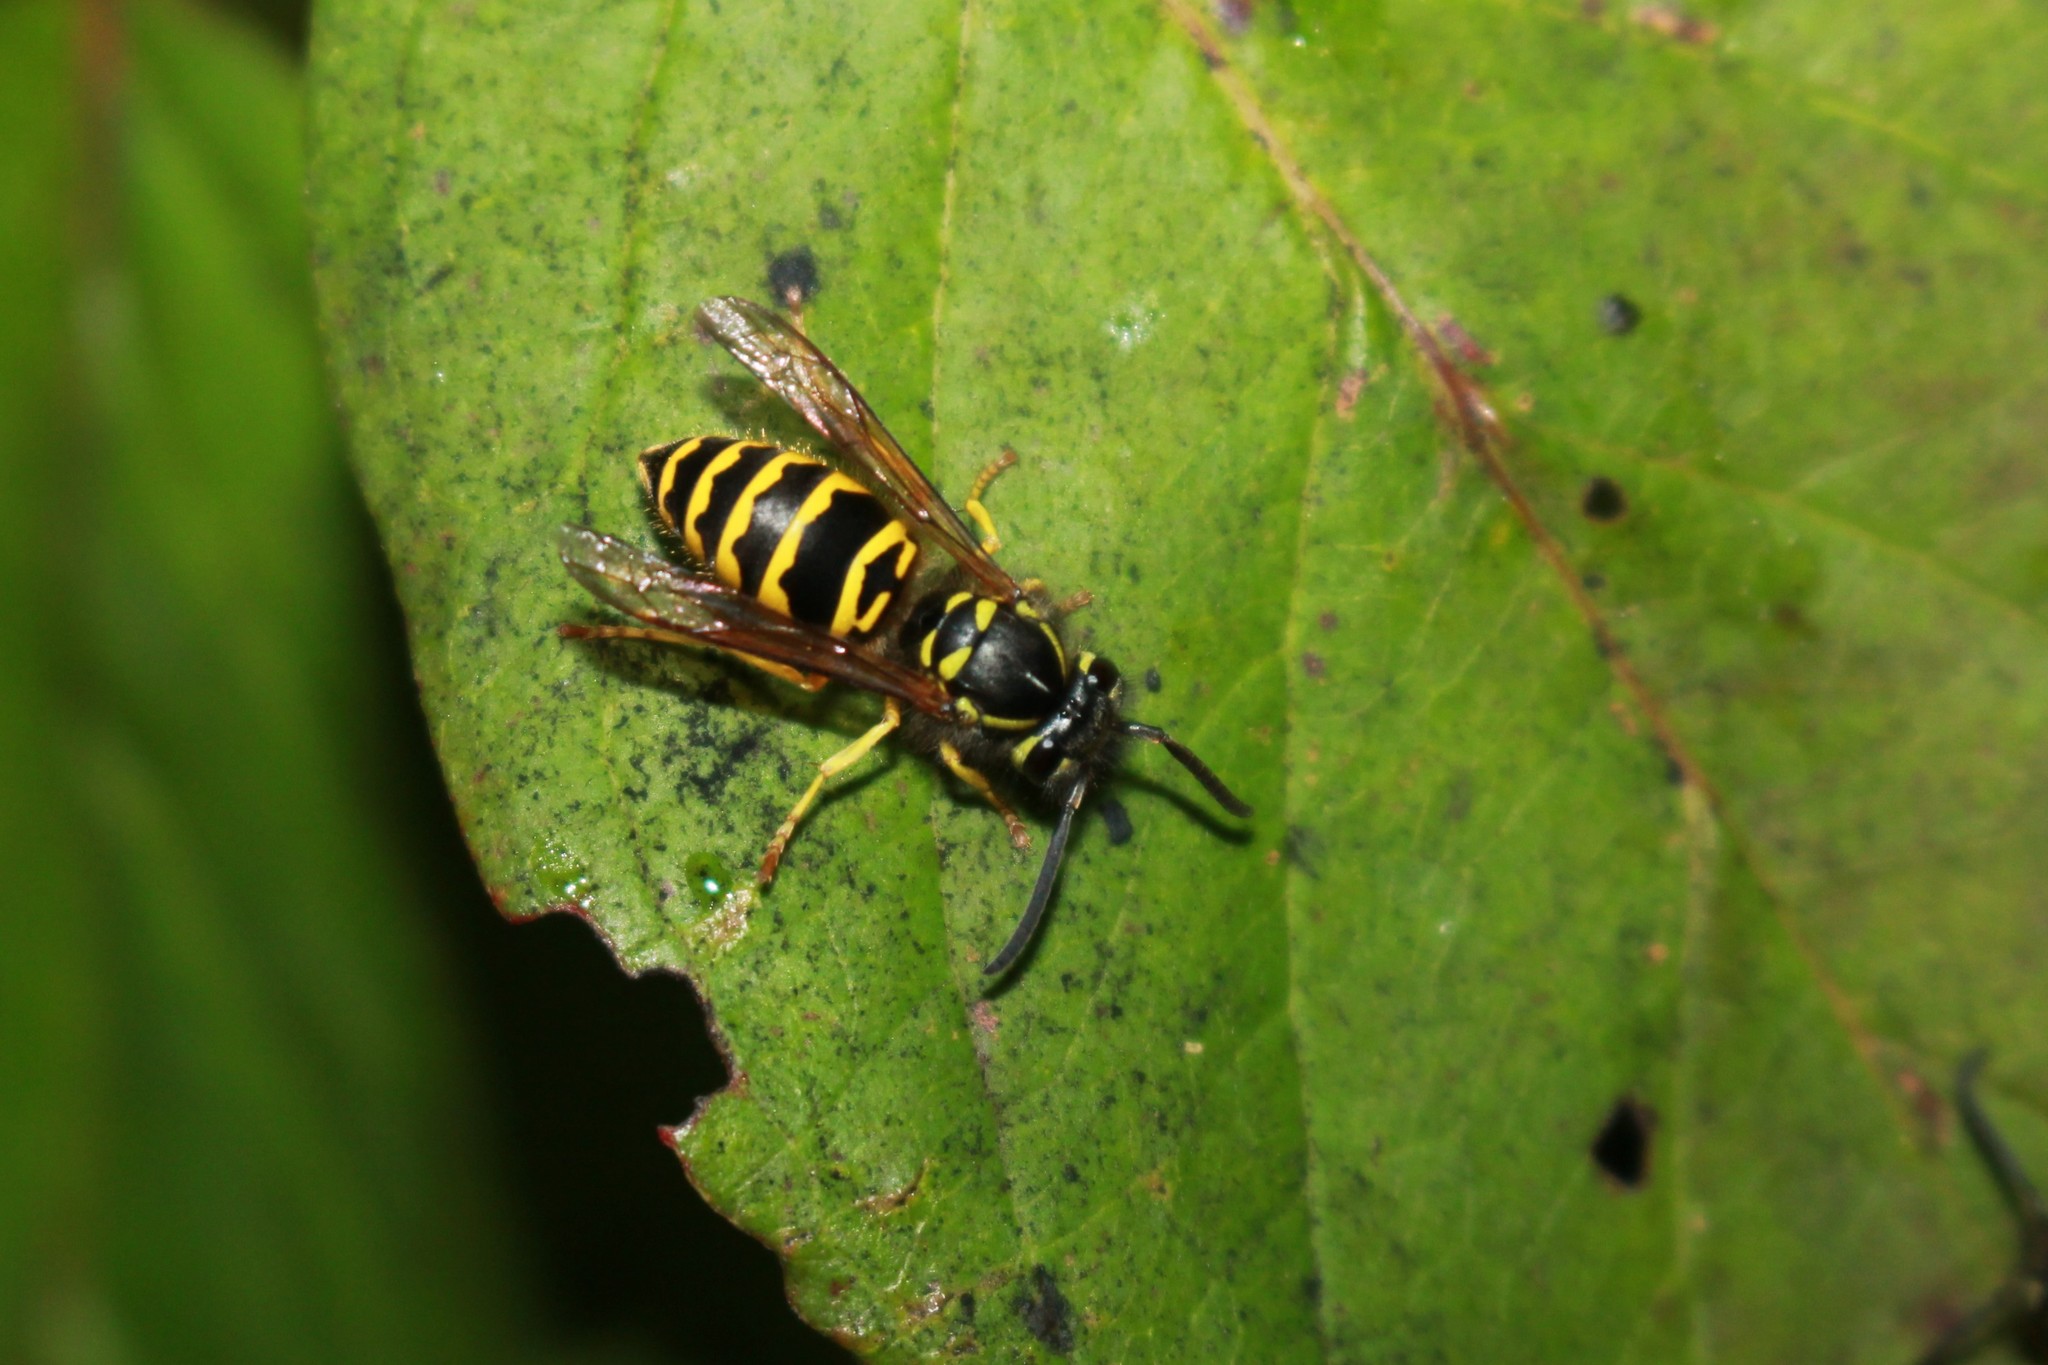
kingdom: Animalia
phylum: Arthropoda
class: Insecta
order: Hymenoptera
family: Vespidae
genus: Vespula
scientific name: Vespula maculifrons
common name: Eastern yellowjacket
